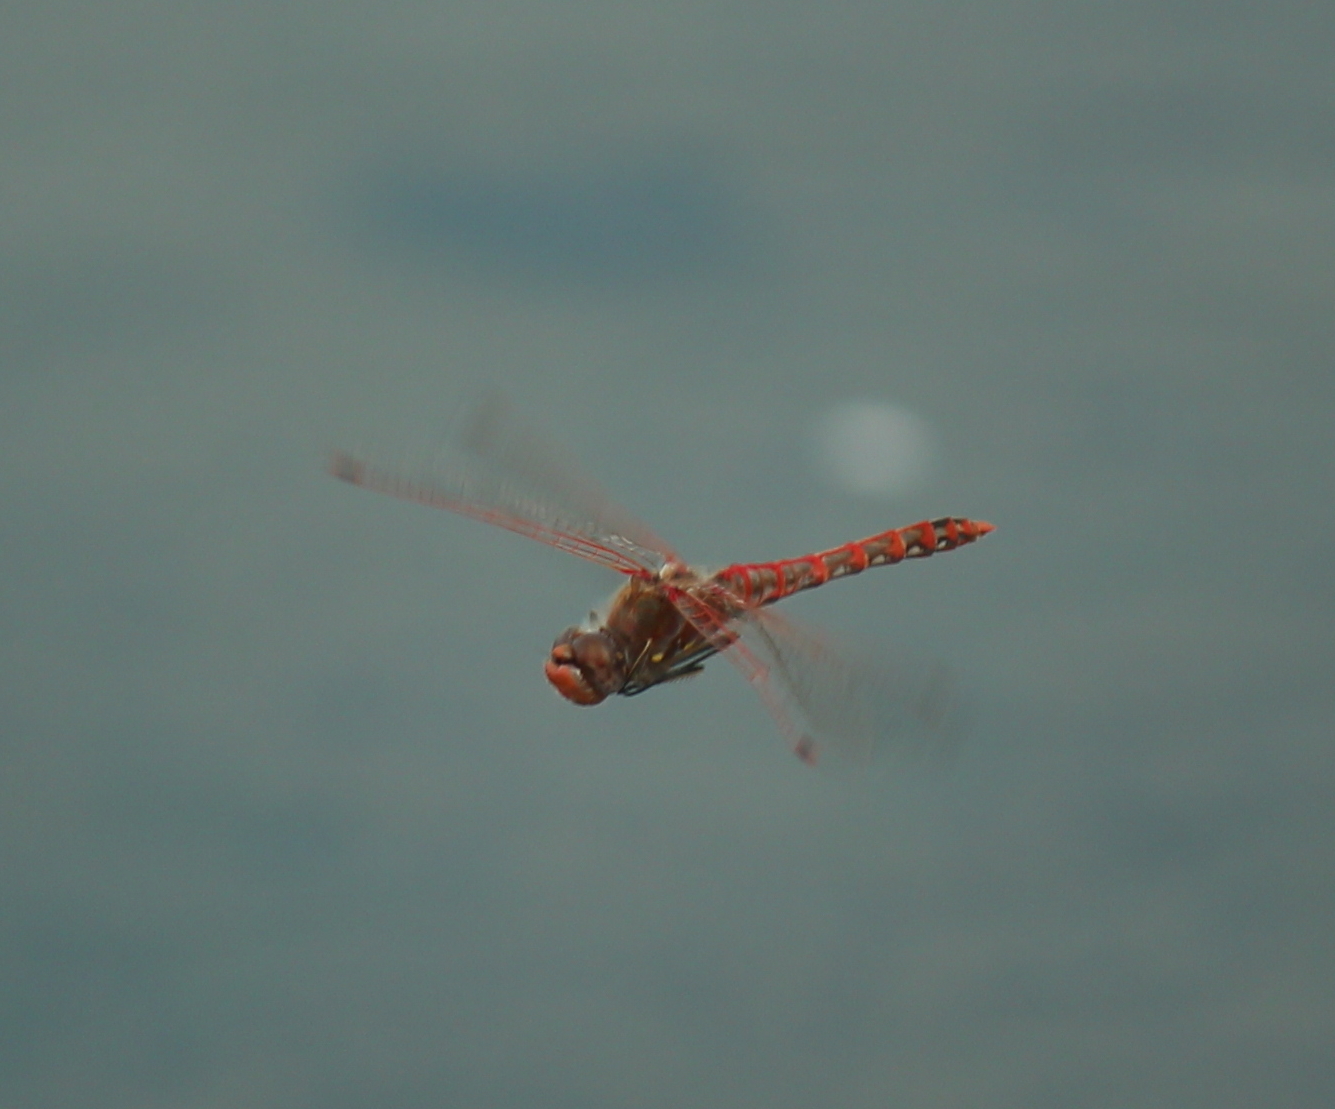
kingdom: Animalia
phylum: Arthropoda
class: Insecta
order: Odonata
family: Libellulidae
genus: Sympetrum
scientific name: Sympetrum corruptum
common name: Variegated meadowhawk
